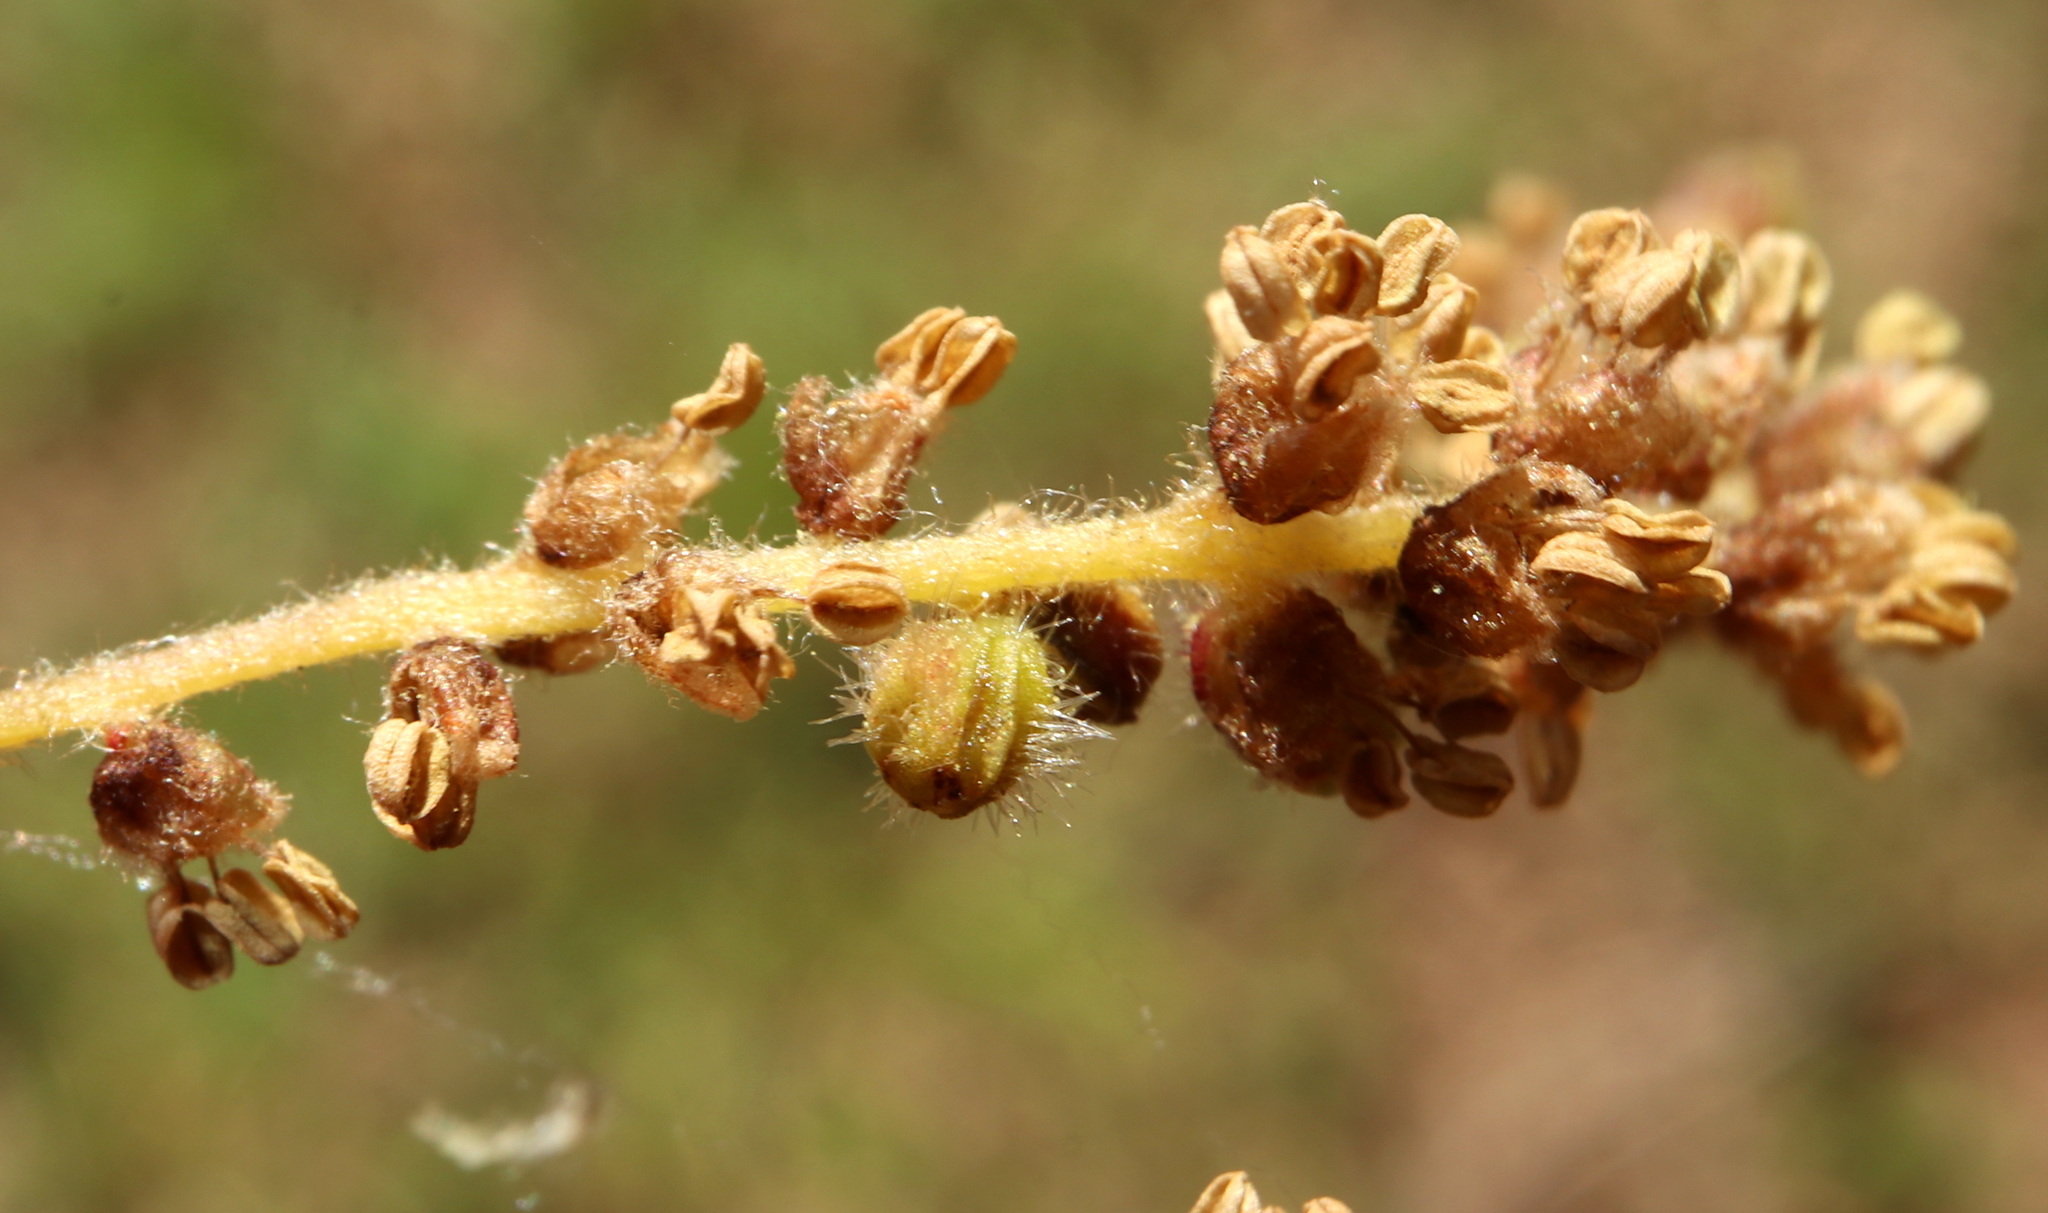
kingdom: Animalia
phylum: Arthropoda
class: Insecta
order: Hymenoptera
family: Cynipidae
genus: Andricus
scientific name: Andricus cooki
